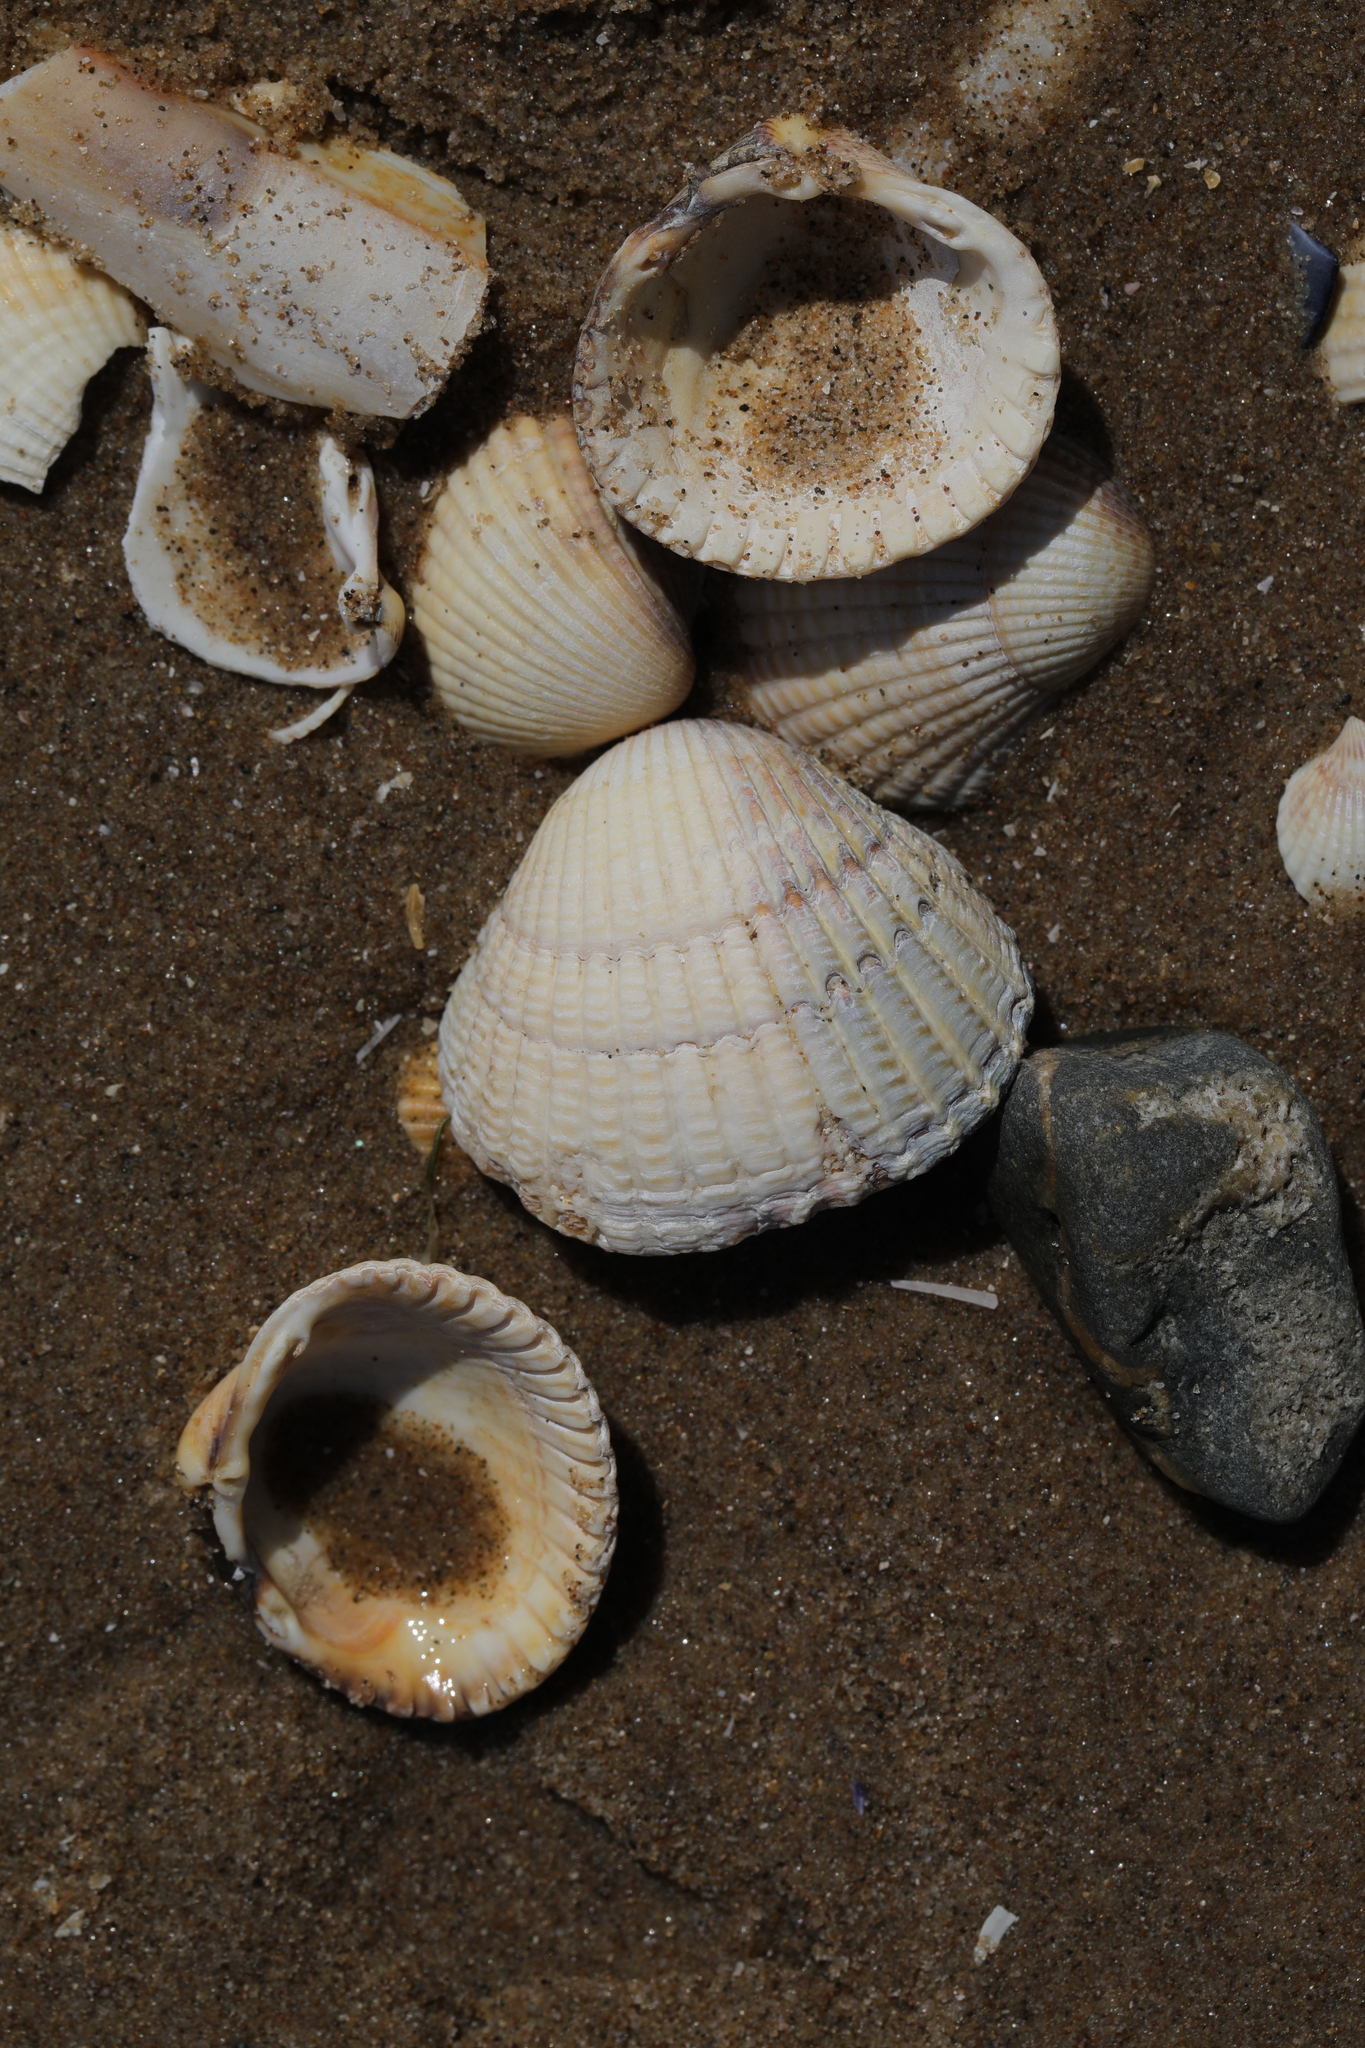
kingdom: Animalia
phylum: Mollusca
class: Bivalvia
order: Cardiida
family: Cardiidae
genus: Cerastoderma
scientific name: Cerastoderma edule
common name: Common cockle
